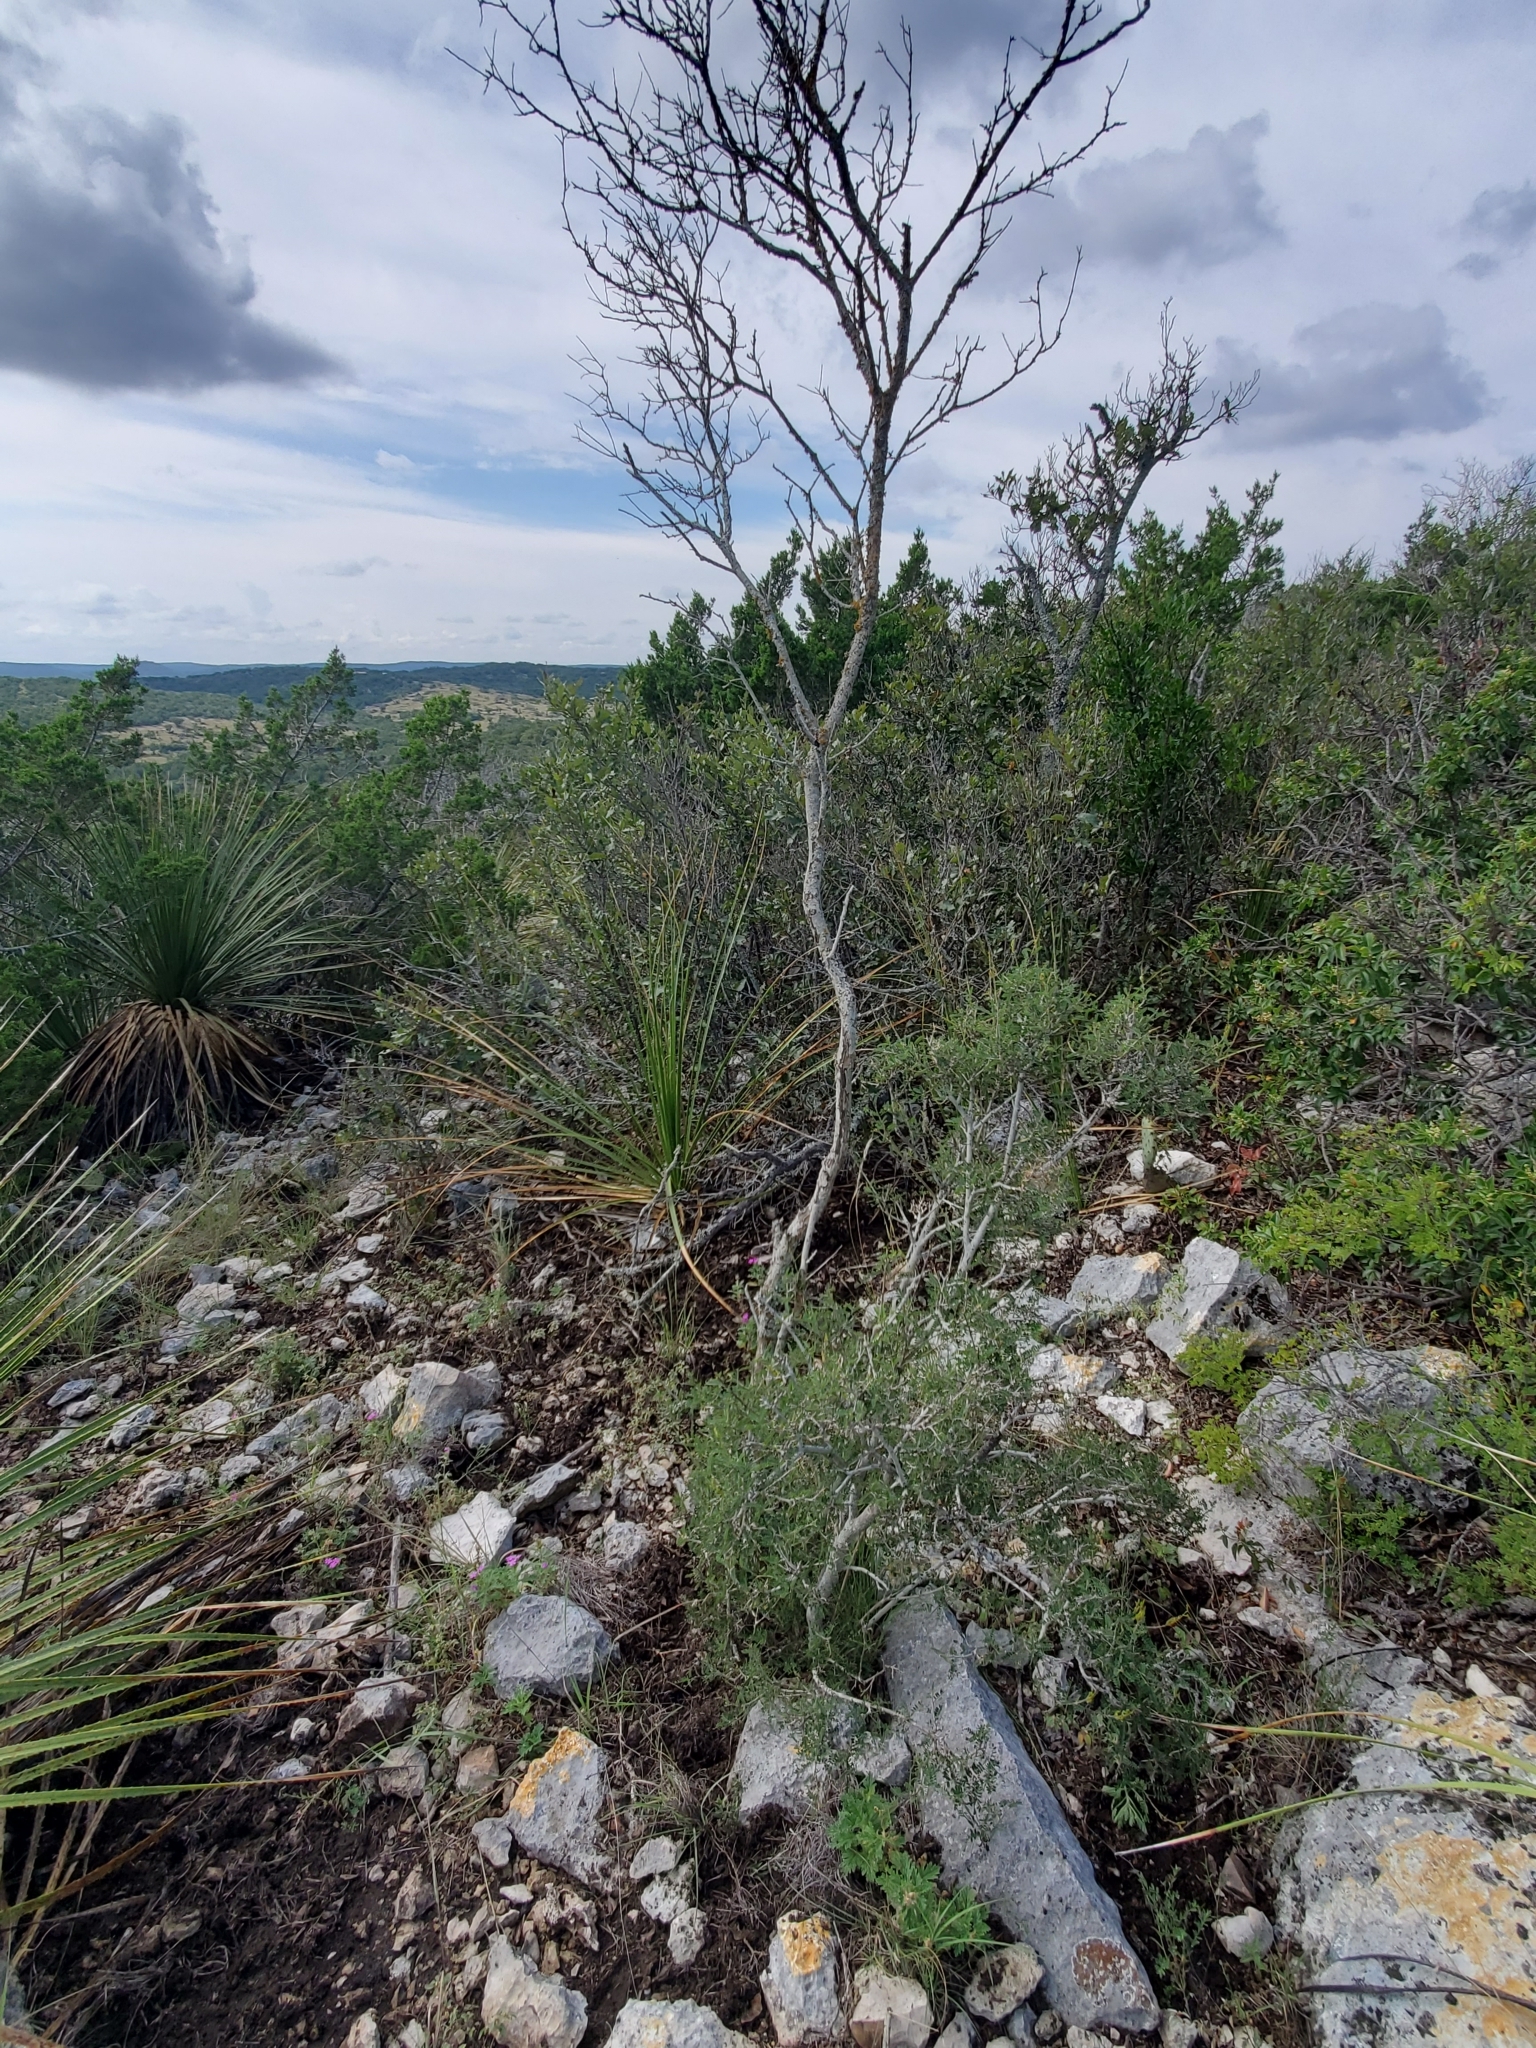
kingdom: Plantae
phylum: Tracheophyta
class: Magnoliopsida
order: Fabales
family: Fabaceae
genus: Eysenhardtia
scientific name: Eysenhardtia texana
